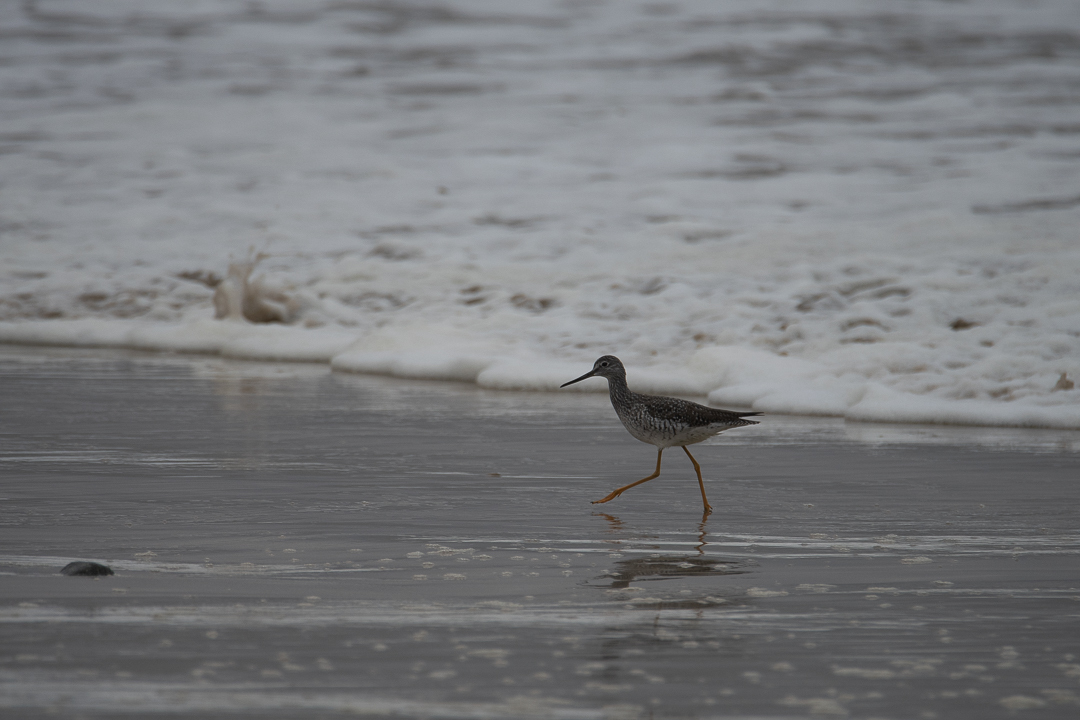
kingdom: Animalia
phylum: Chordata
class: Aves
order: Charadriiformes
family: Scolopacidae
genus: Tringa
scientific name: Tringa melanoleuca
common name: Greater yellowlegs
